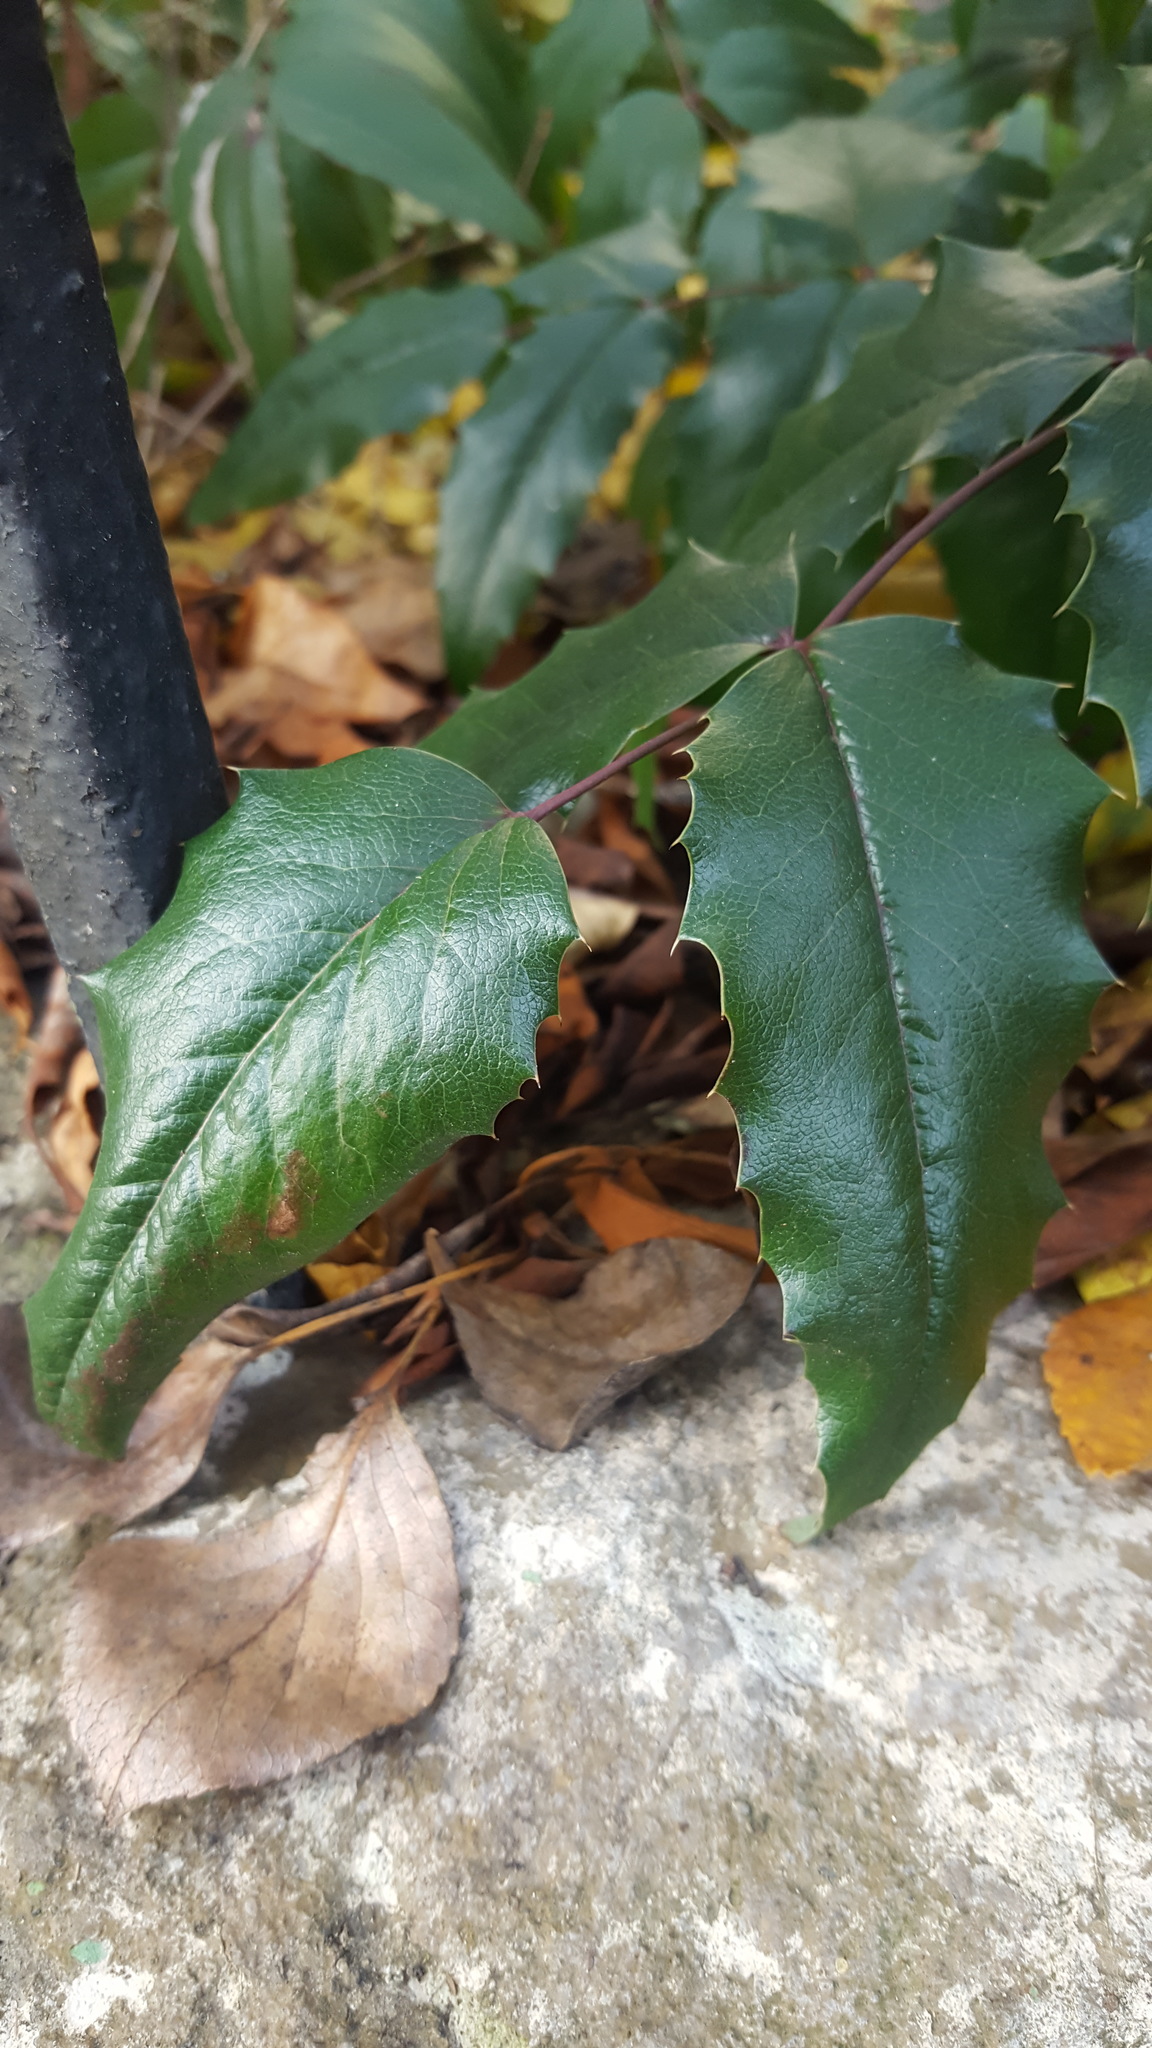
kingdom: Plantae
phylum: Tracheophyta
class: Magnoliopsida
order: Ranunculales
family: Berberidaceae
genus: Mahonia
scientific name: Mahonia aquifolium
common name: Oregon-grape
